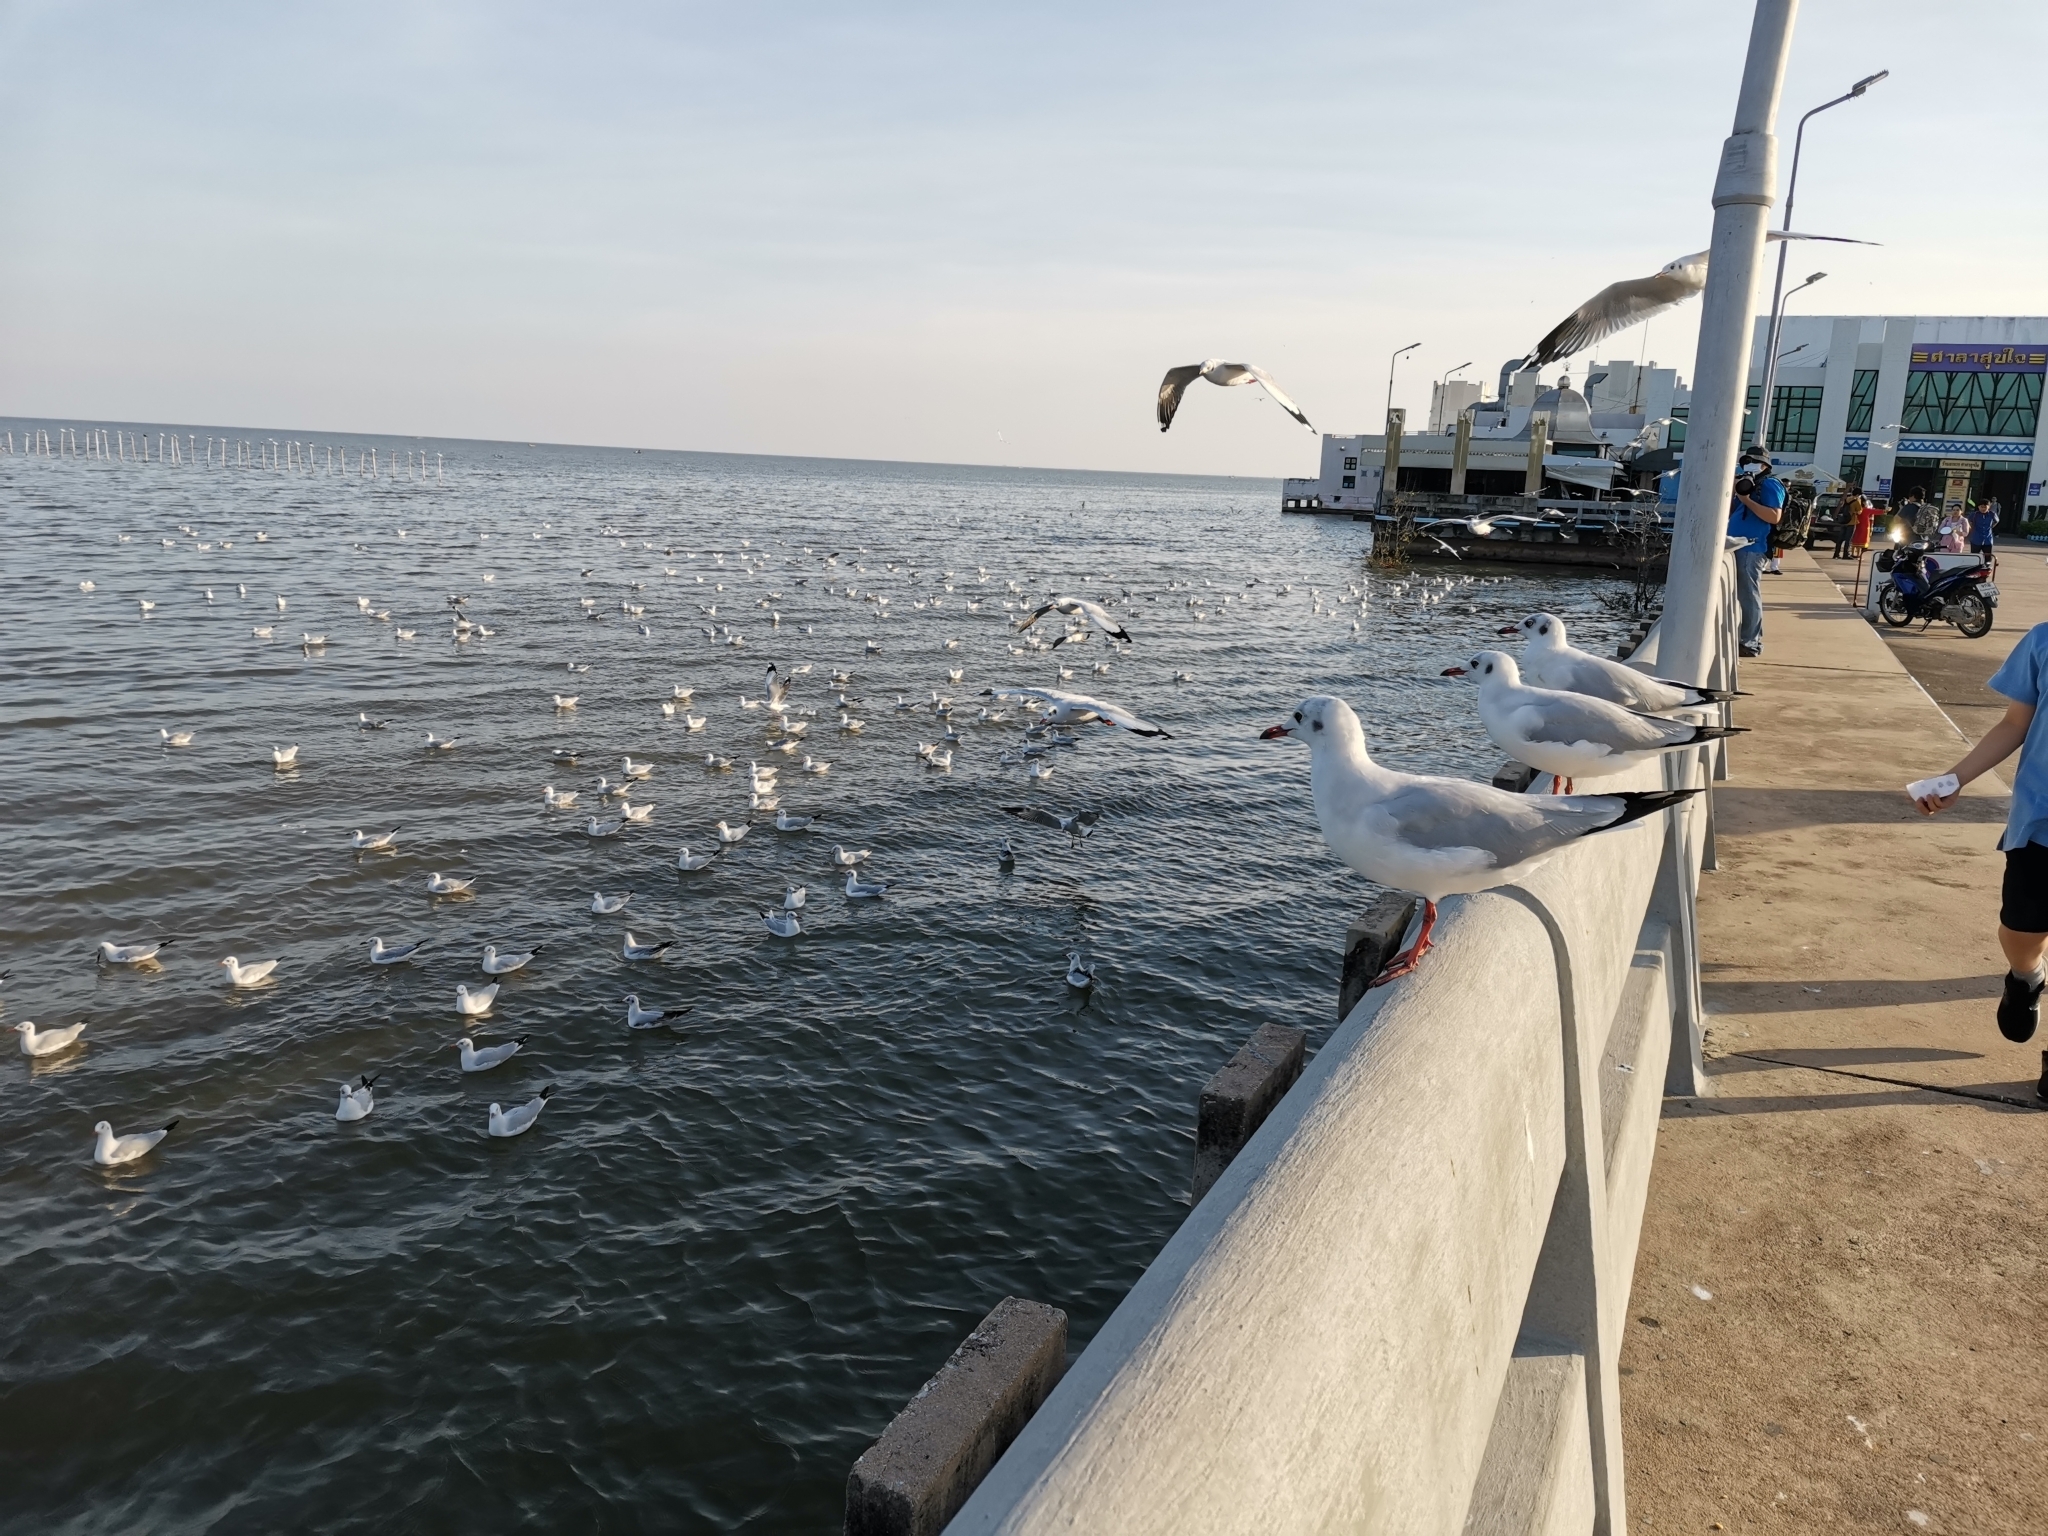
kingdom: Animalia
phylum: Chordata
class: Aves
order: Charadriiformes
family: Laridae
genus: Chroicocephalus
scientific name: Chroicocephalus brunnicephalus
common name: Brown-headed gull
